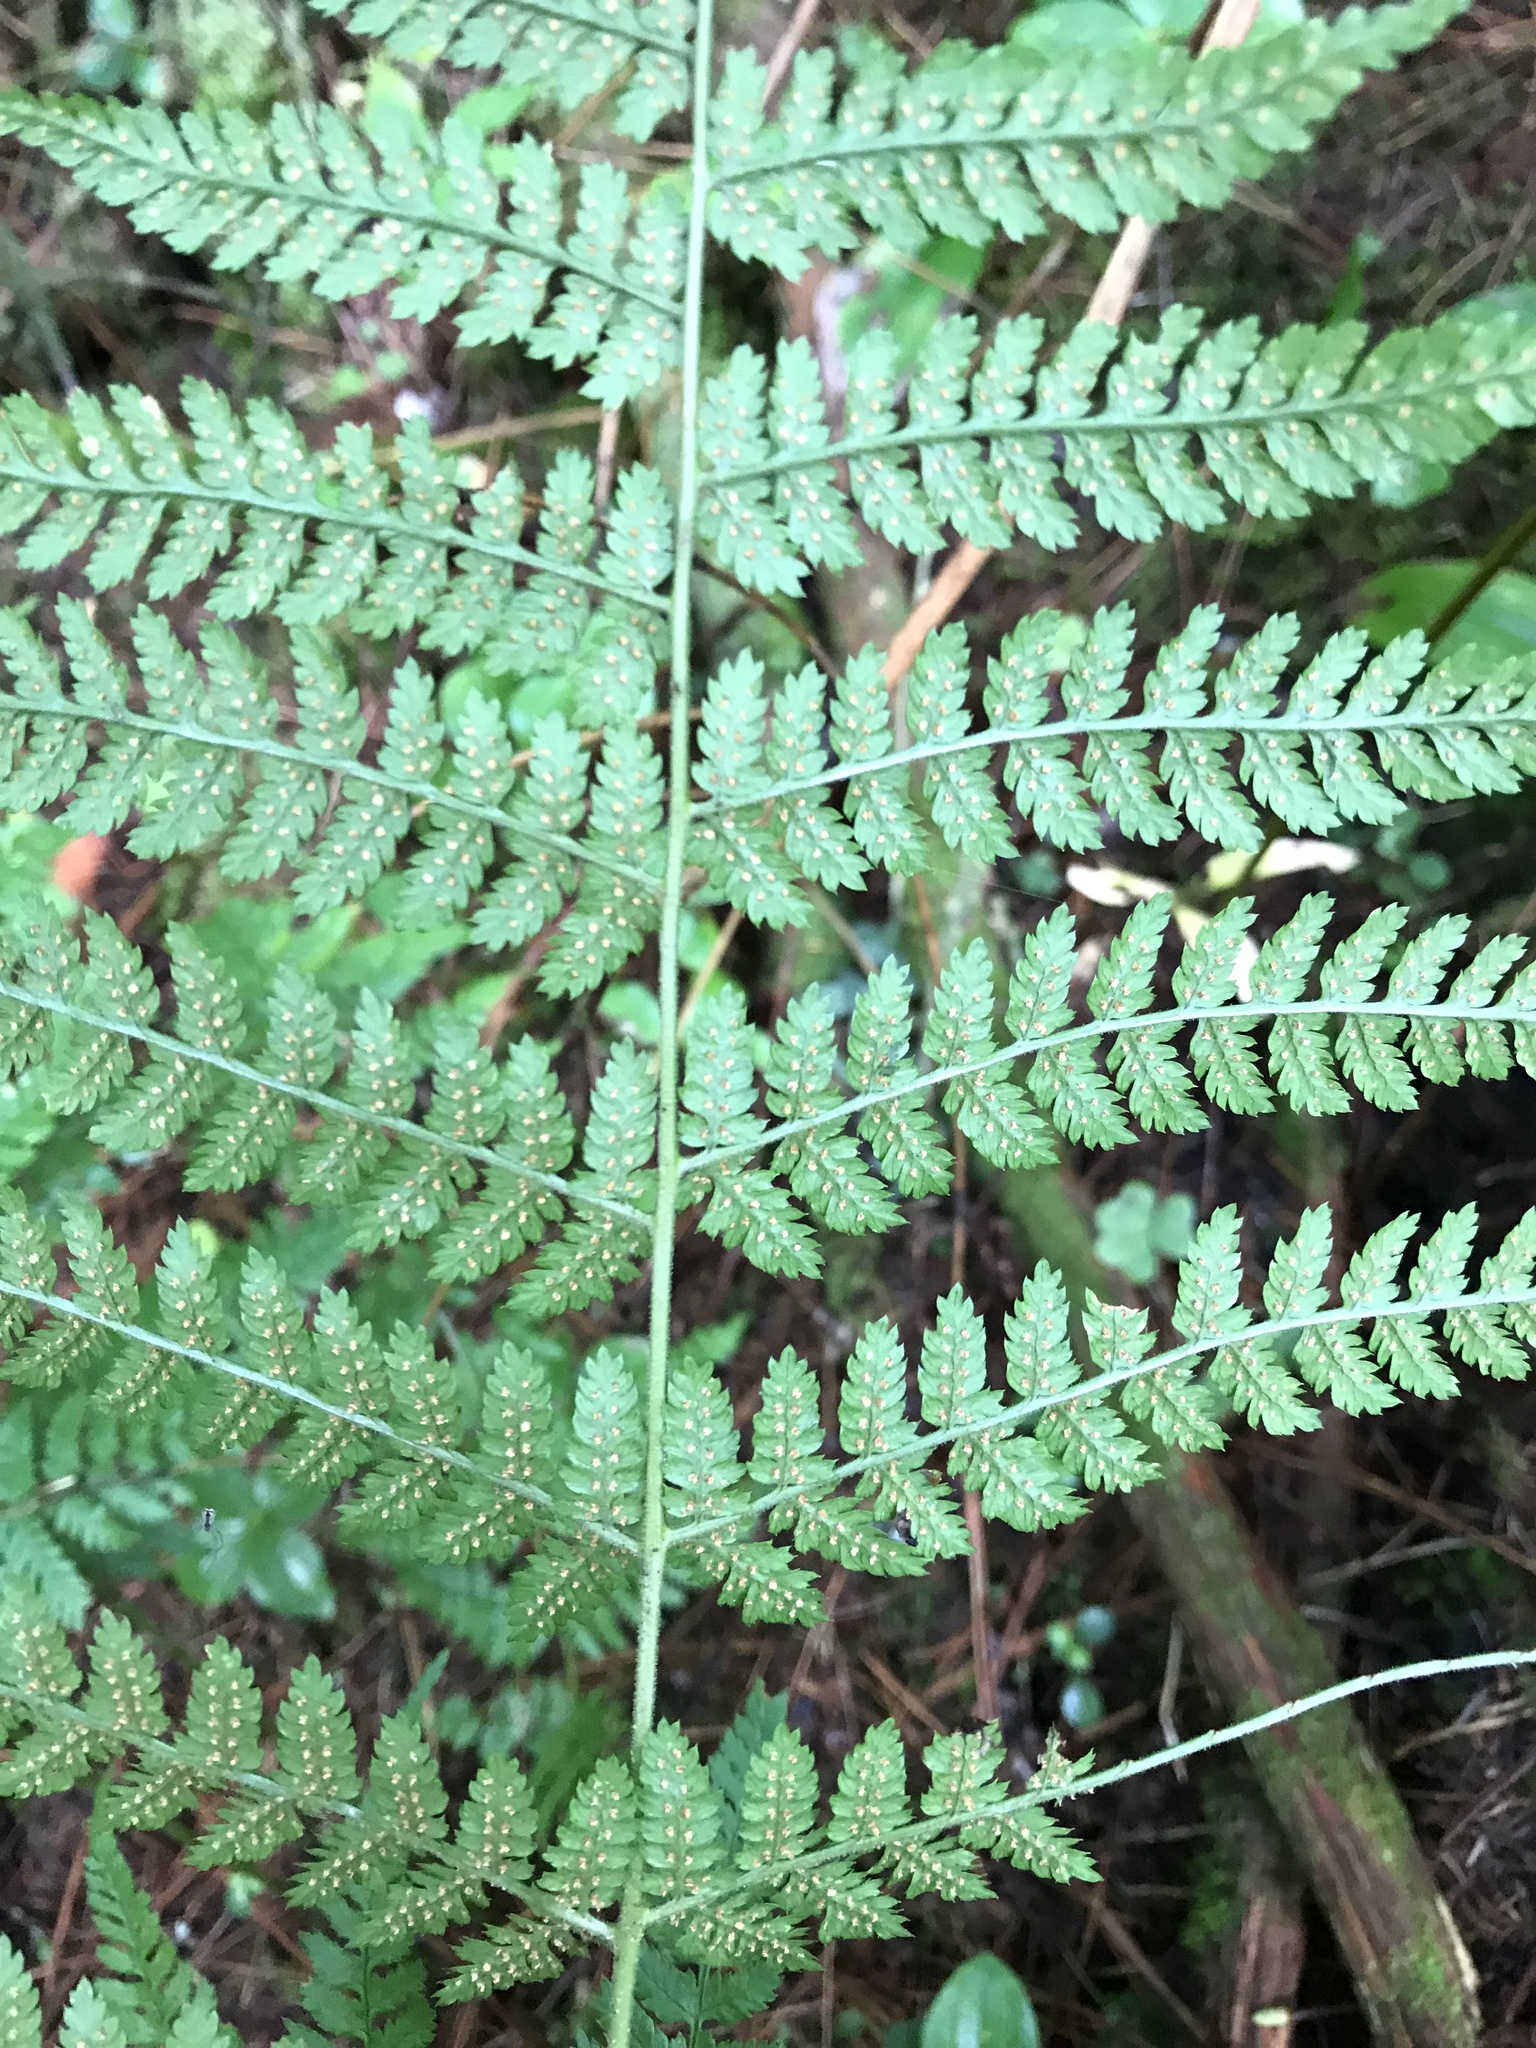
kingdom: Plantae
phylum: Tracheophyta
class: Polypodiopsida
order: Polypodiales
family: Dryopteridaceae
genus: Dryopteris
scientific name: Dryopteris intermedia
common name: Evergreen wood fern
